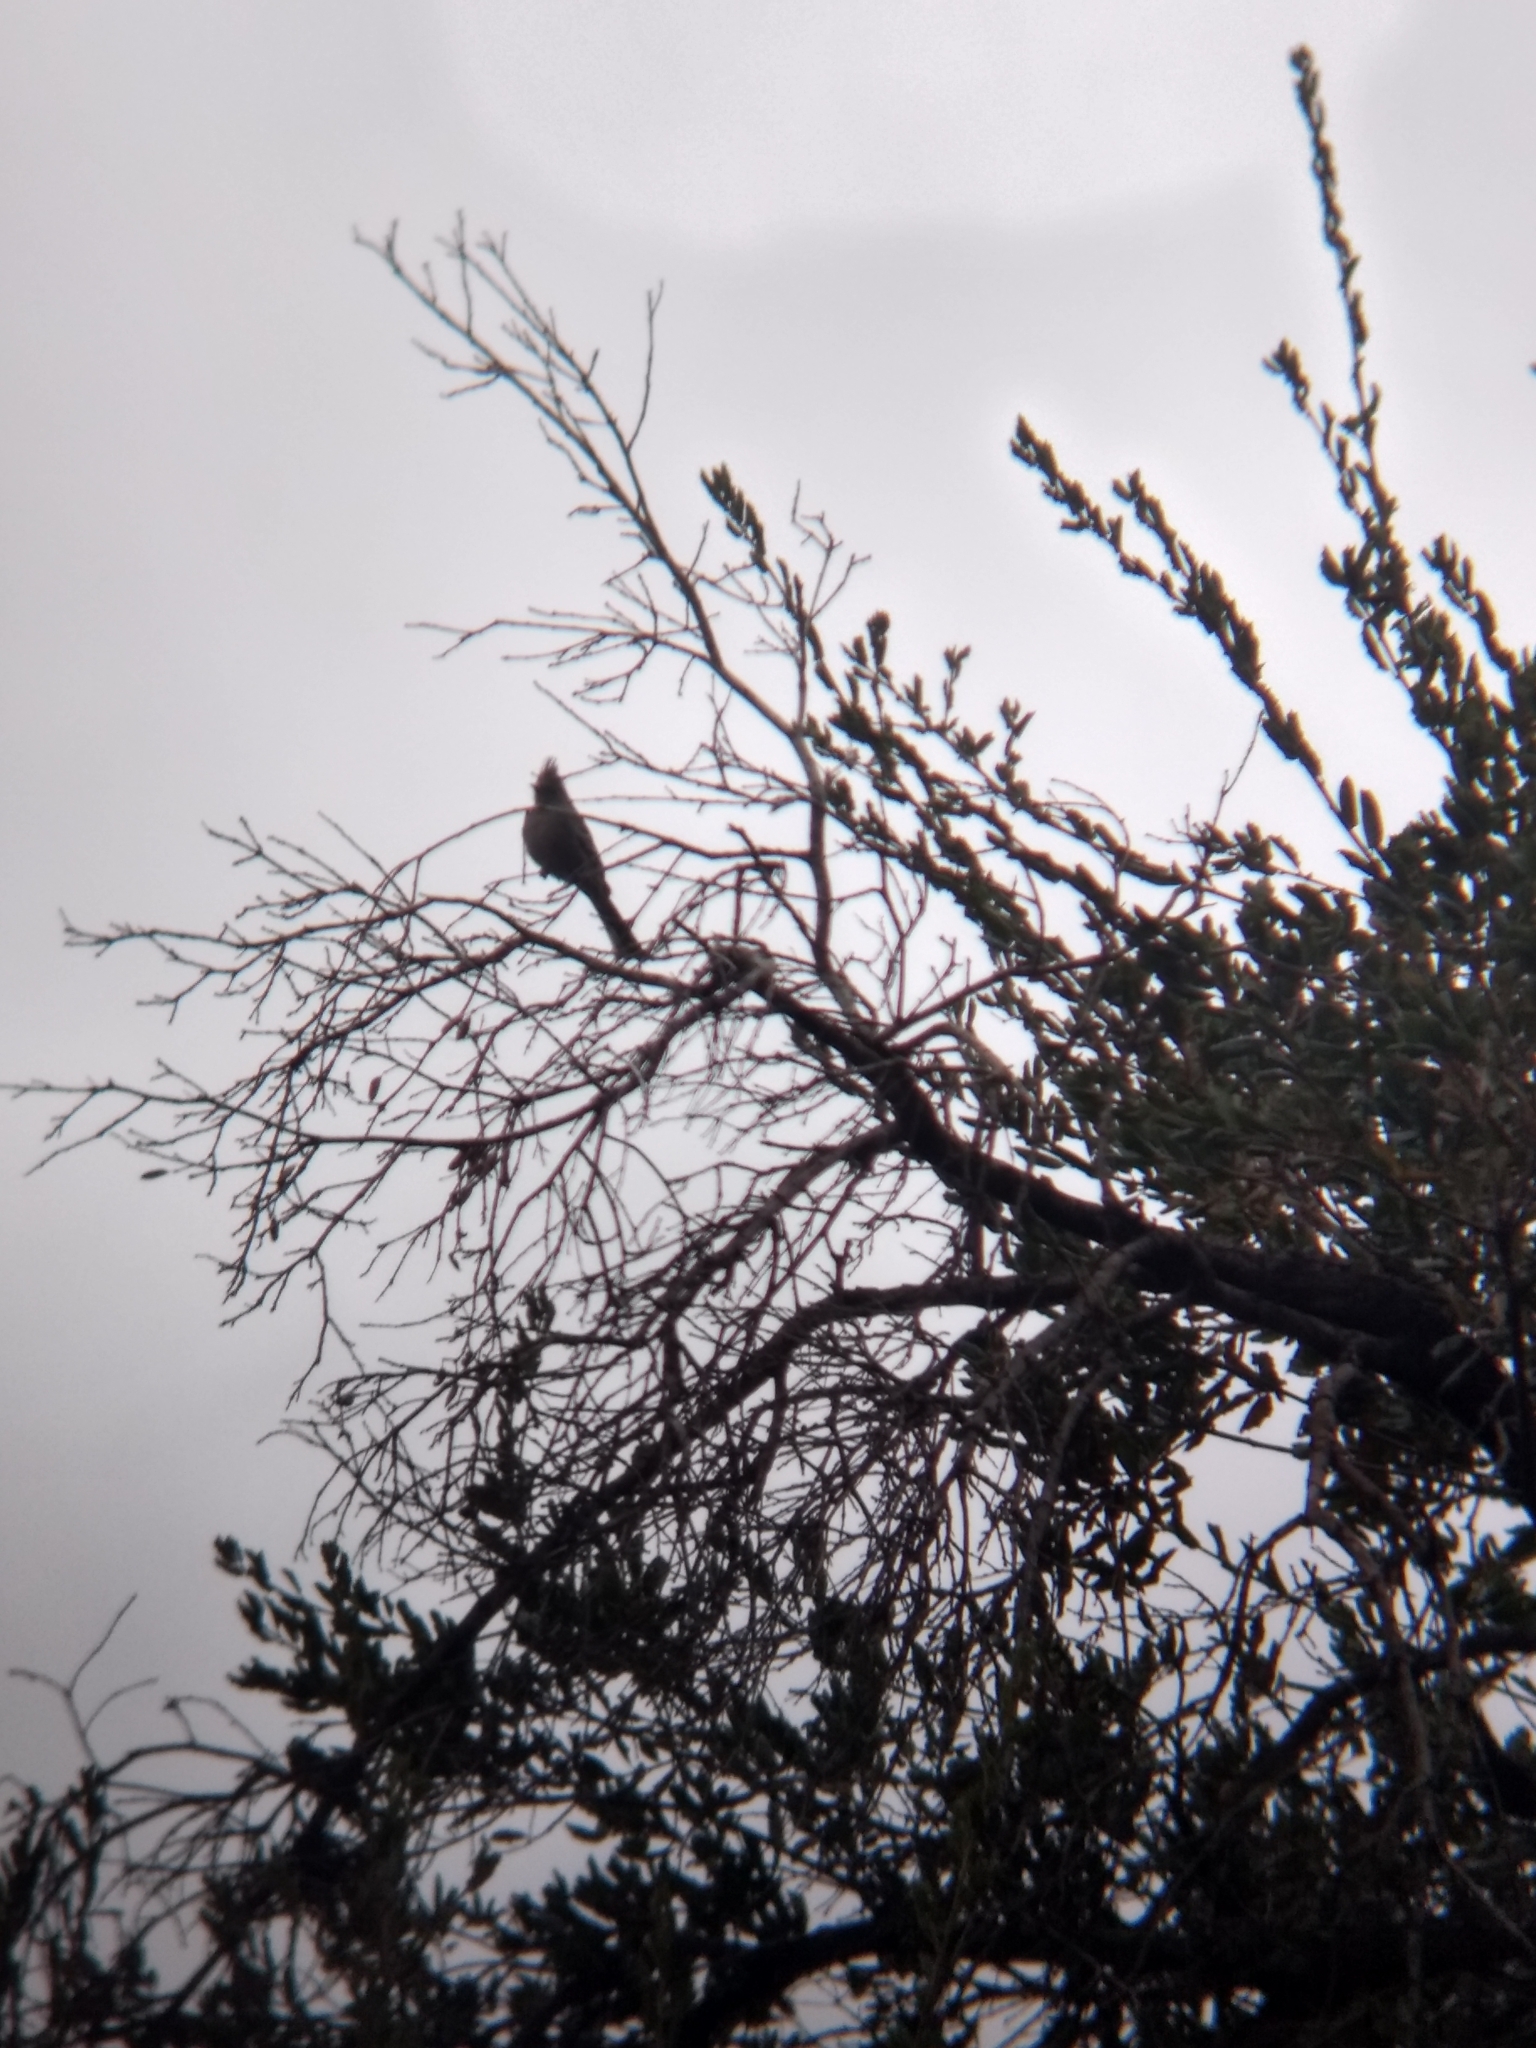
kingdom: Animalia
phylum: Chordata
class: Aves
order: Passeriformes
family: Ptilogonatidae
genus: Phainopepla
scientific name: Phainopepla nitens
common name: Phainopepla
